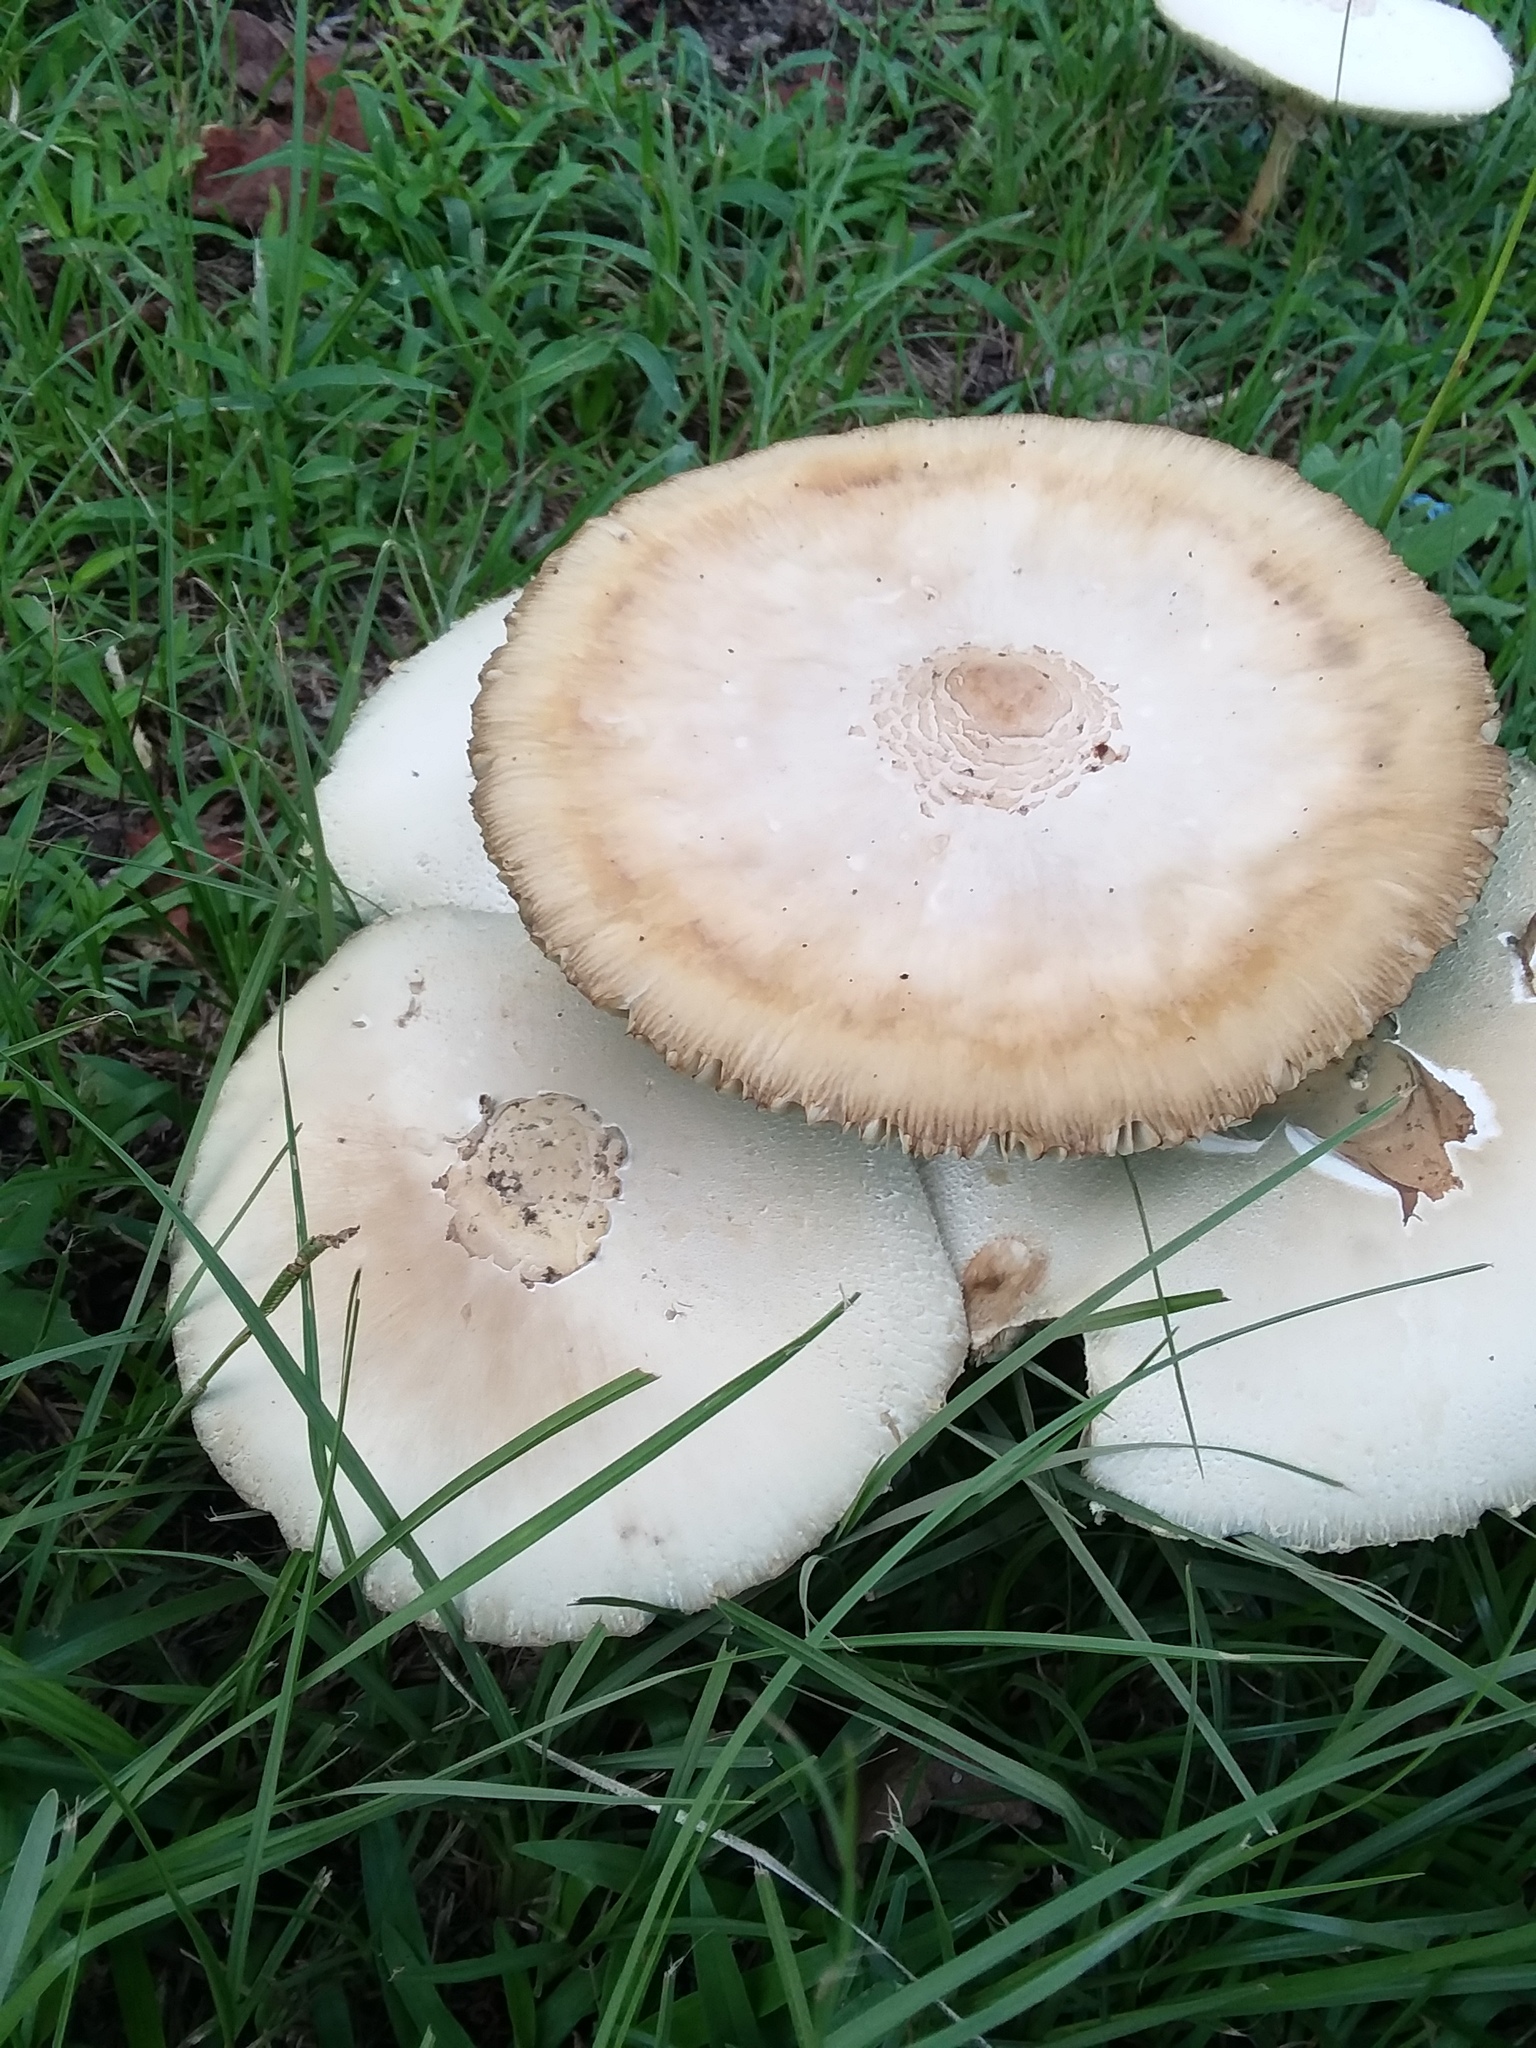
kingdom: Fungi
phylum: Basidiomycota
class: Agaricomycetes
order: Agaricales
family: Agaricaceae
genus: Chlorophyllum
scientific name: Chlorophyllum molybdites
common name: False parasol
